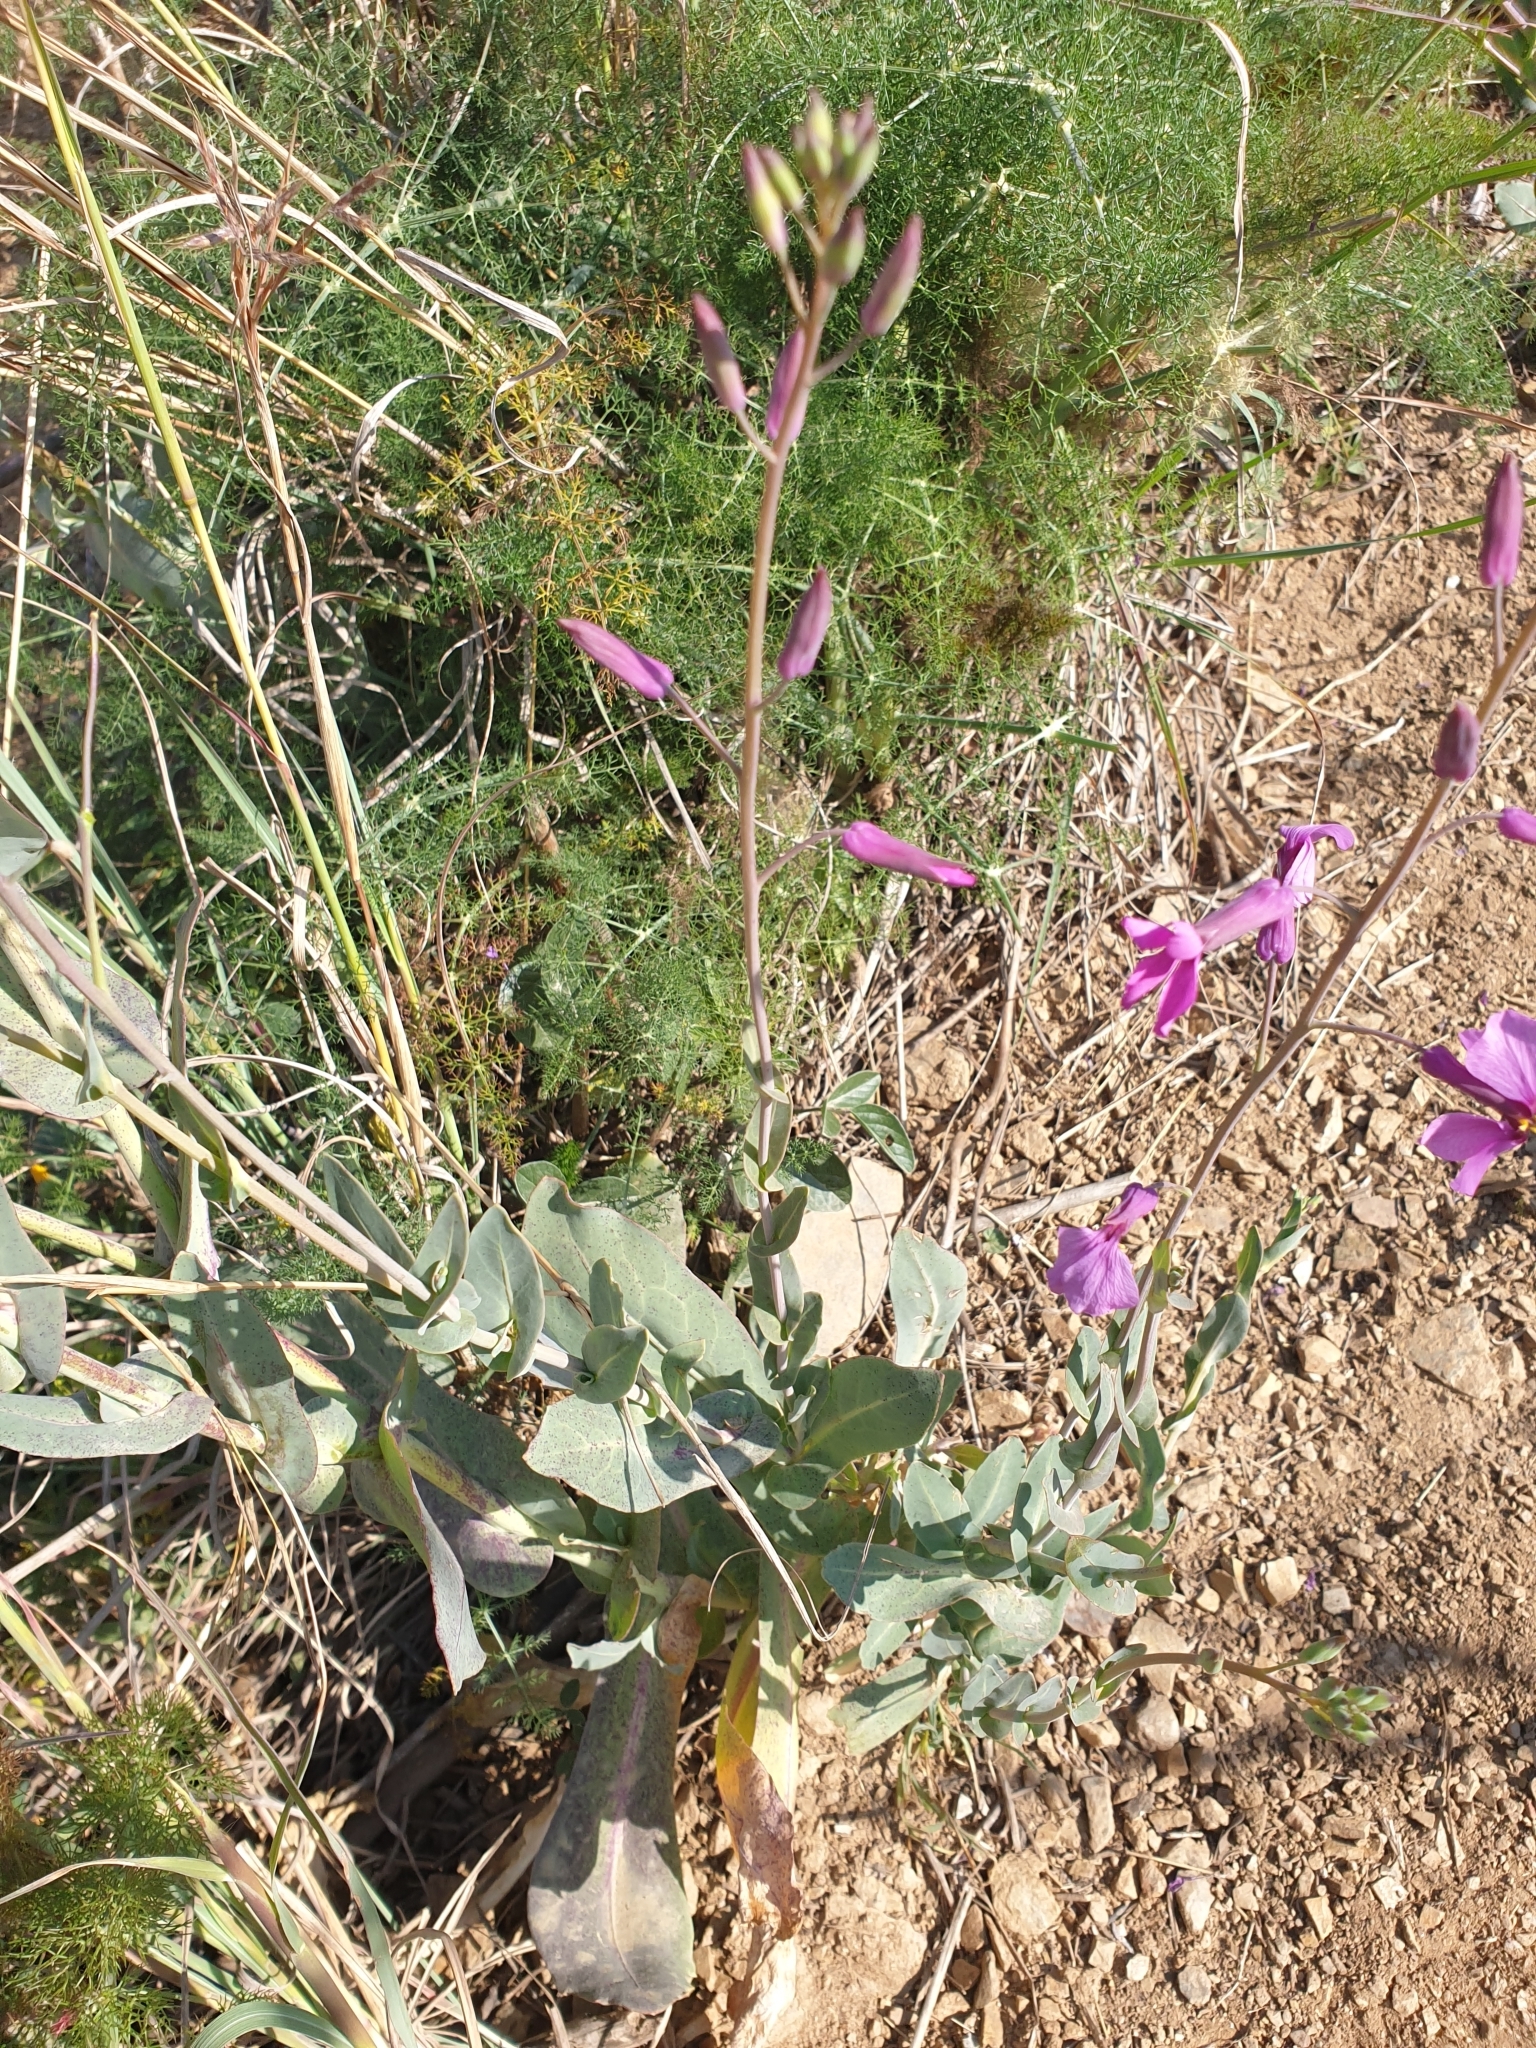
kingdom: Plantae
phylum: Tracheophyta
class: Magnoliopsida
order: Brassicales
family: Brassicaceae
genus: Moricandia
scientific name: Moricandia arvensis
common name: Purple mistress
